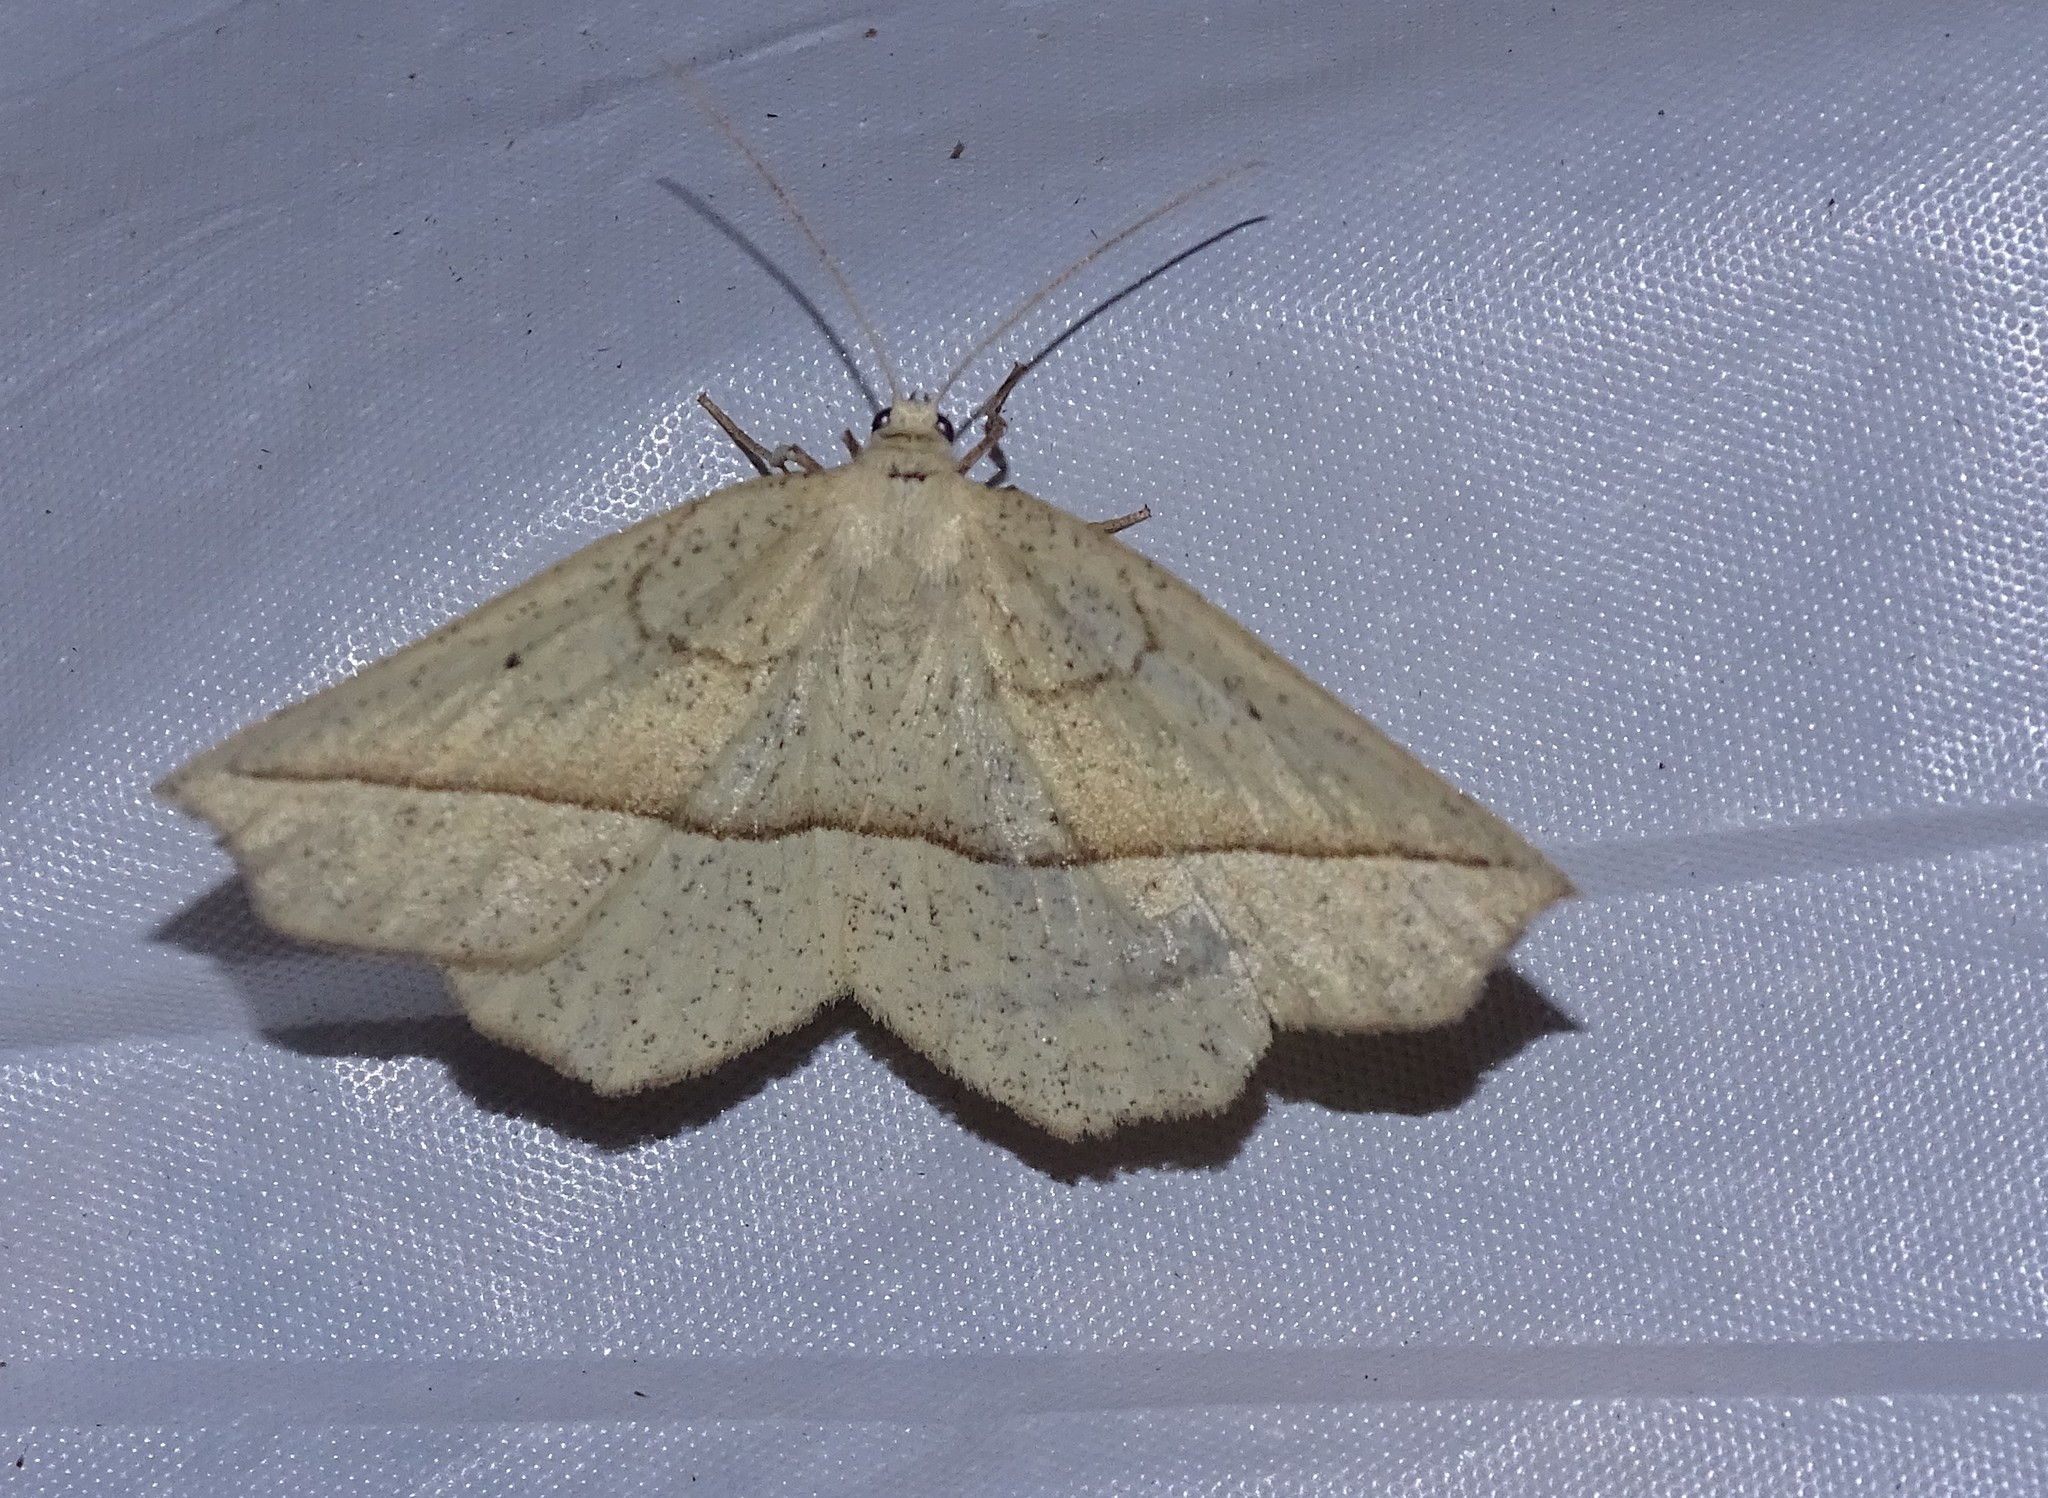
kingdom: Animalia
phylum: Arthropoda
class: Insecta
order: Lepidoptera
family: Geometridae
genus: Eusarca
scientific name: Eusarca confusaria
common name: Confused eusarca
